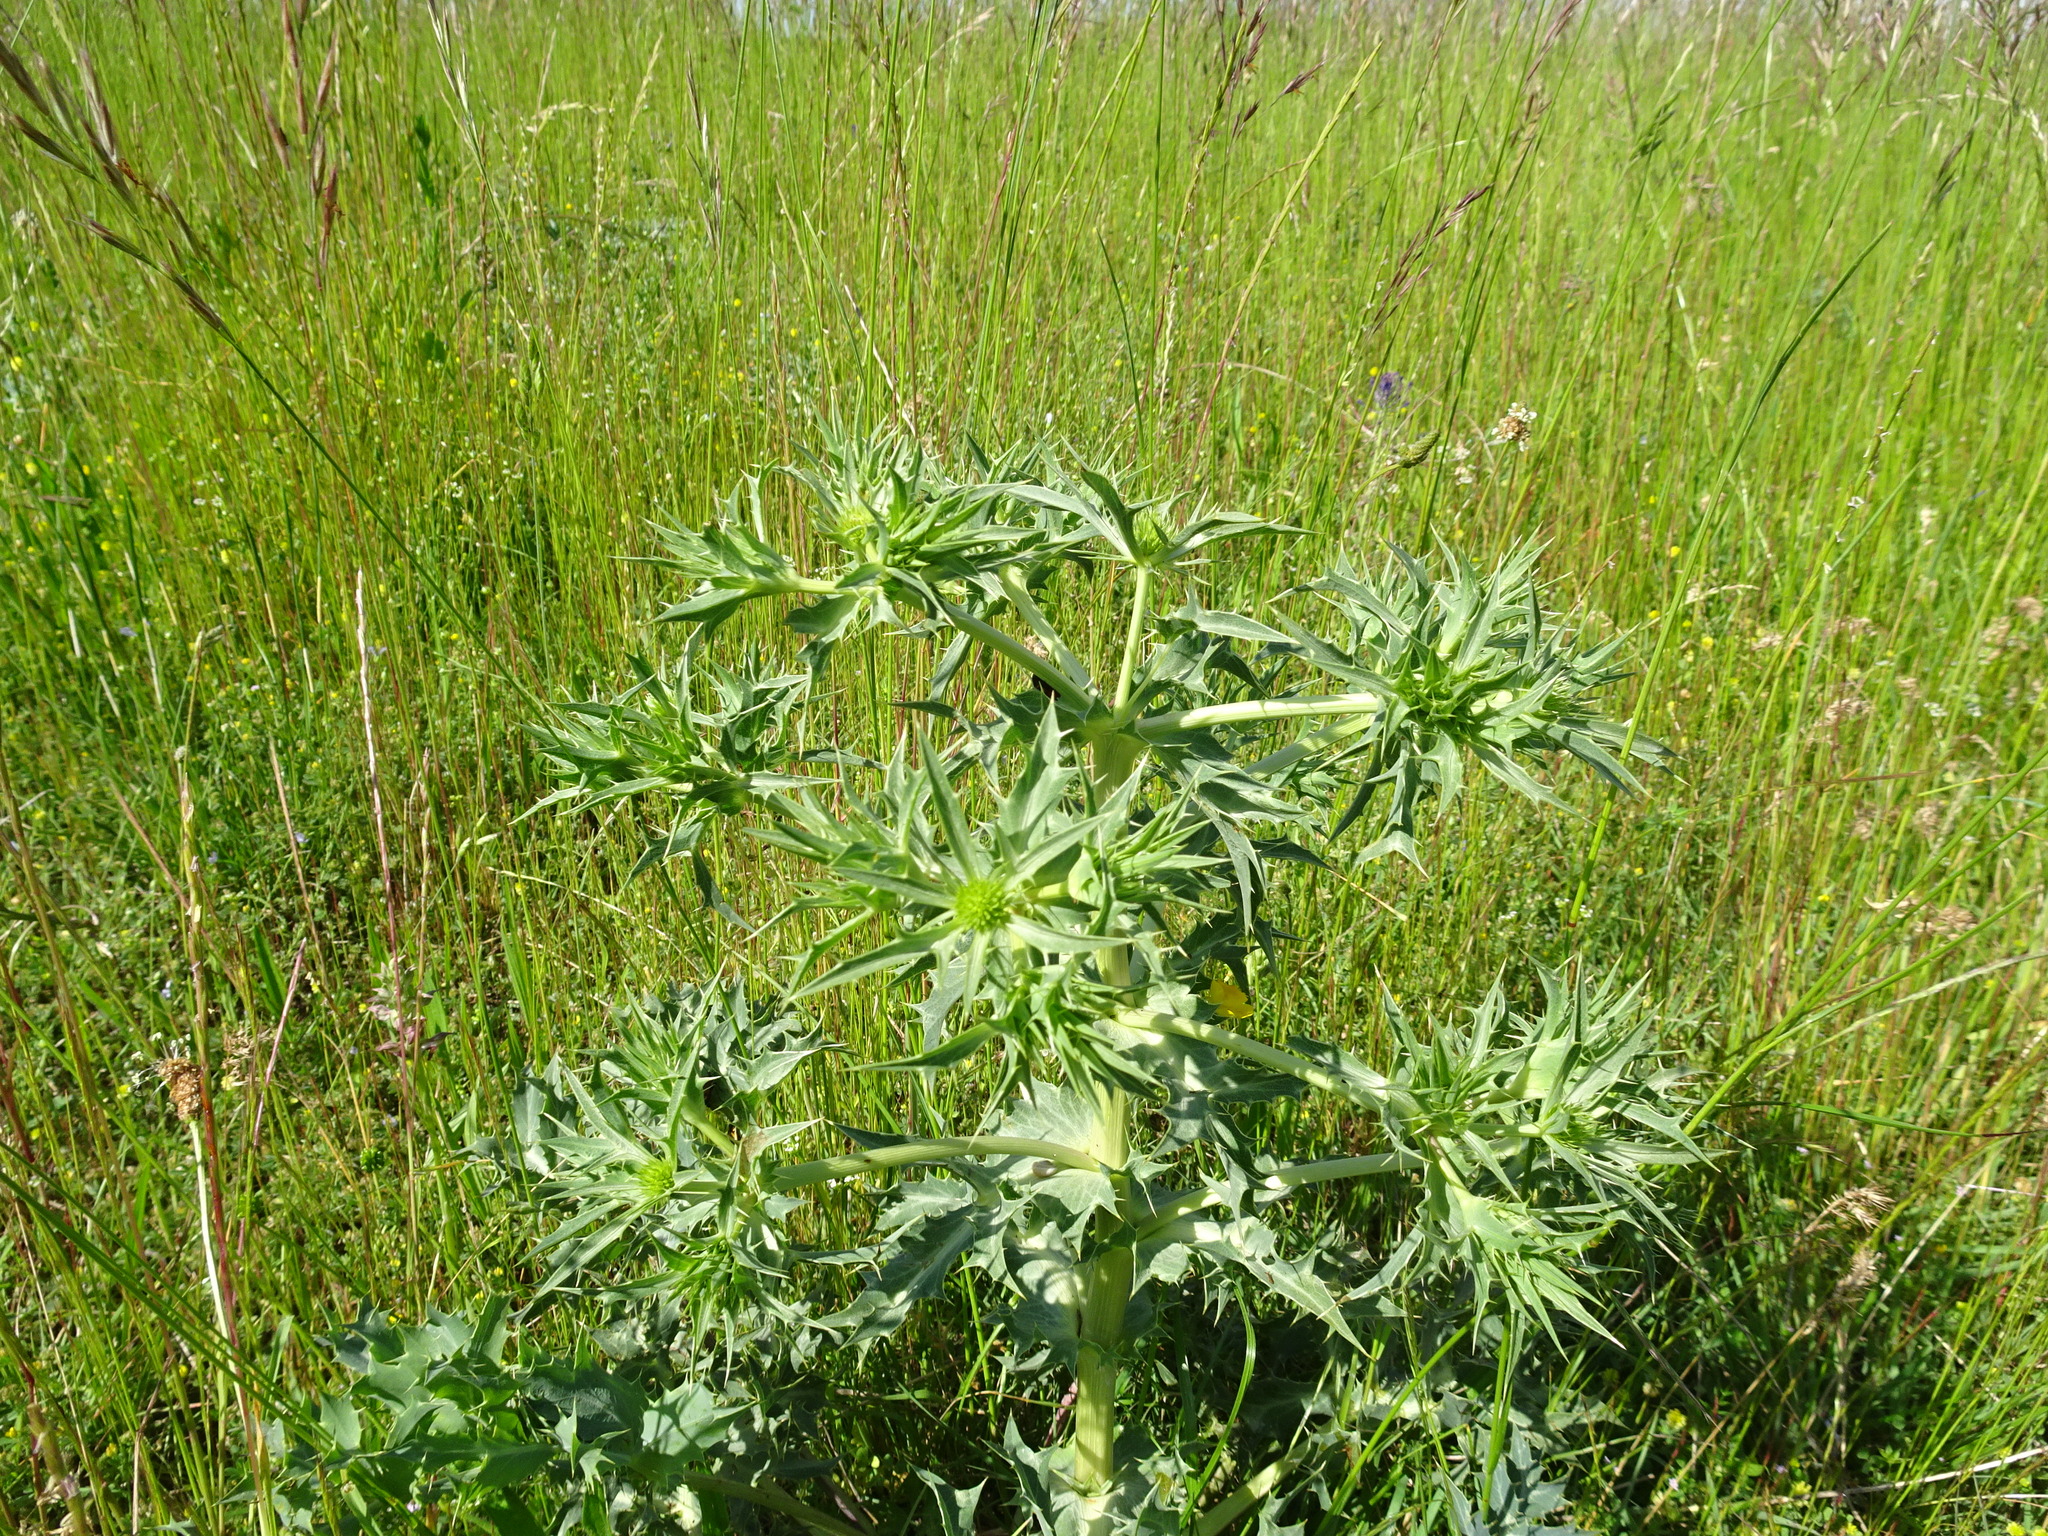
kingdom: Plantae
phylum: Tracheophyta
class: Magnoliopsida
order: Apiales
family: Apiaceae
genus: Eryngium
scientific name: Eryngium campestre
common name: Field eryngo
